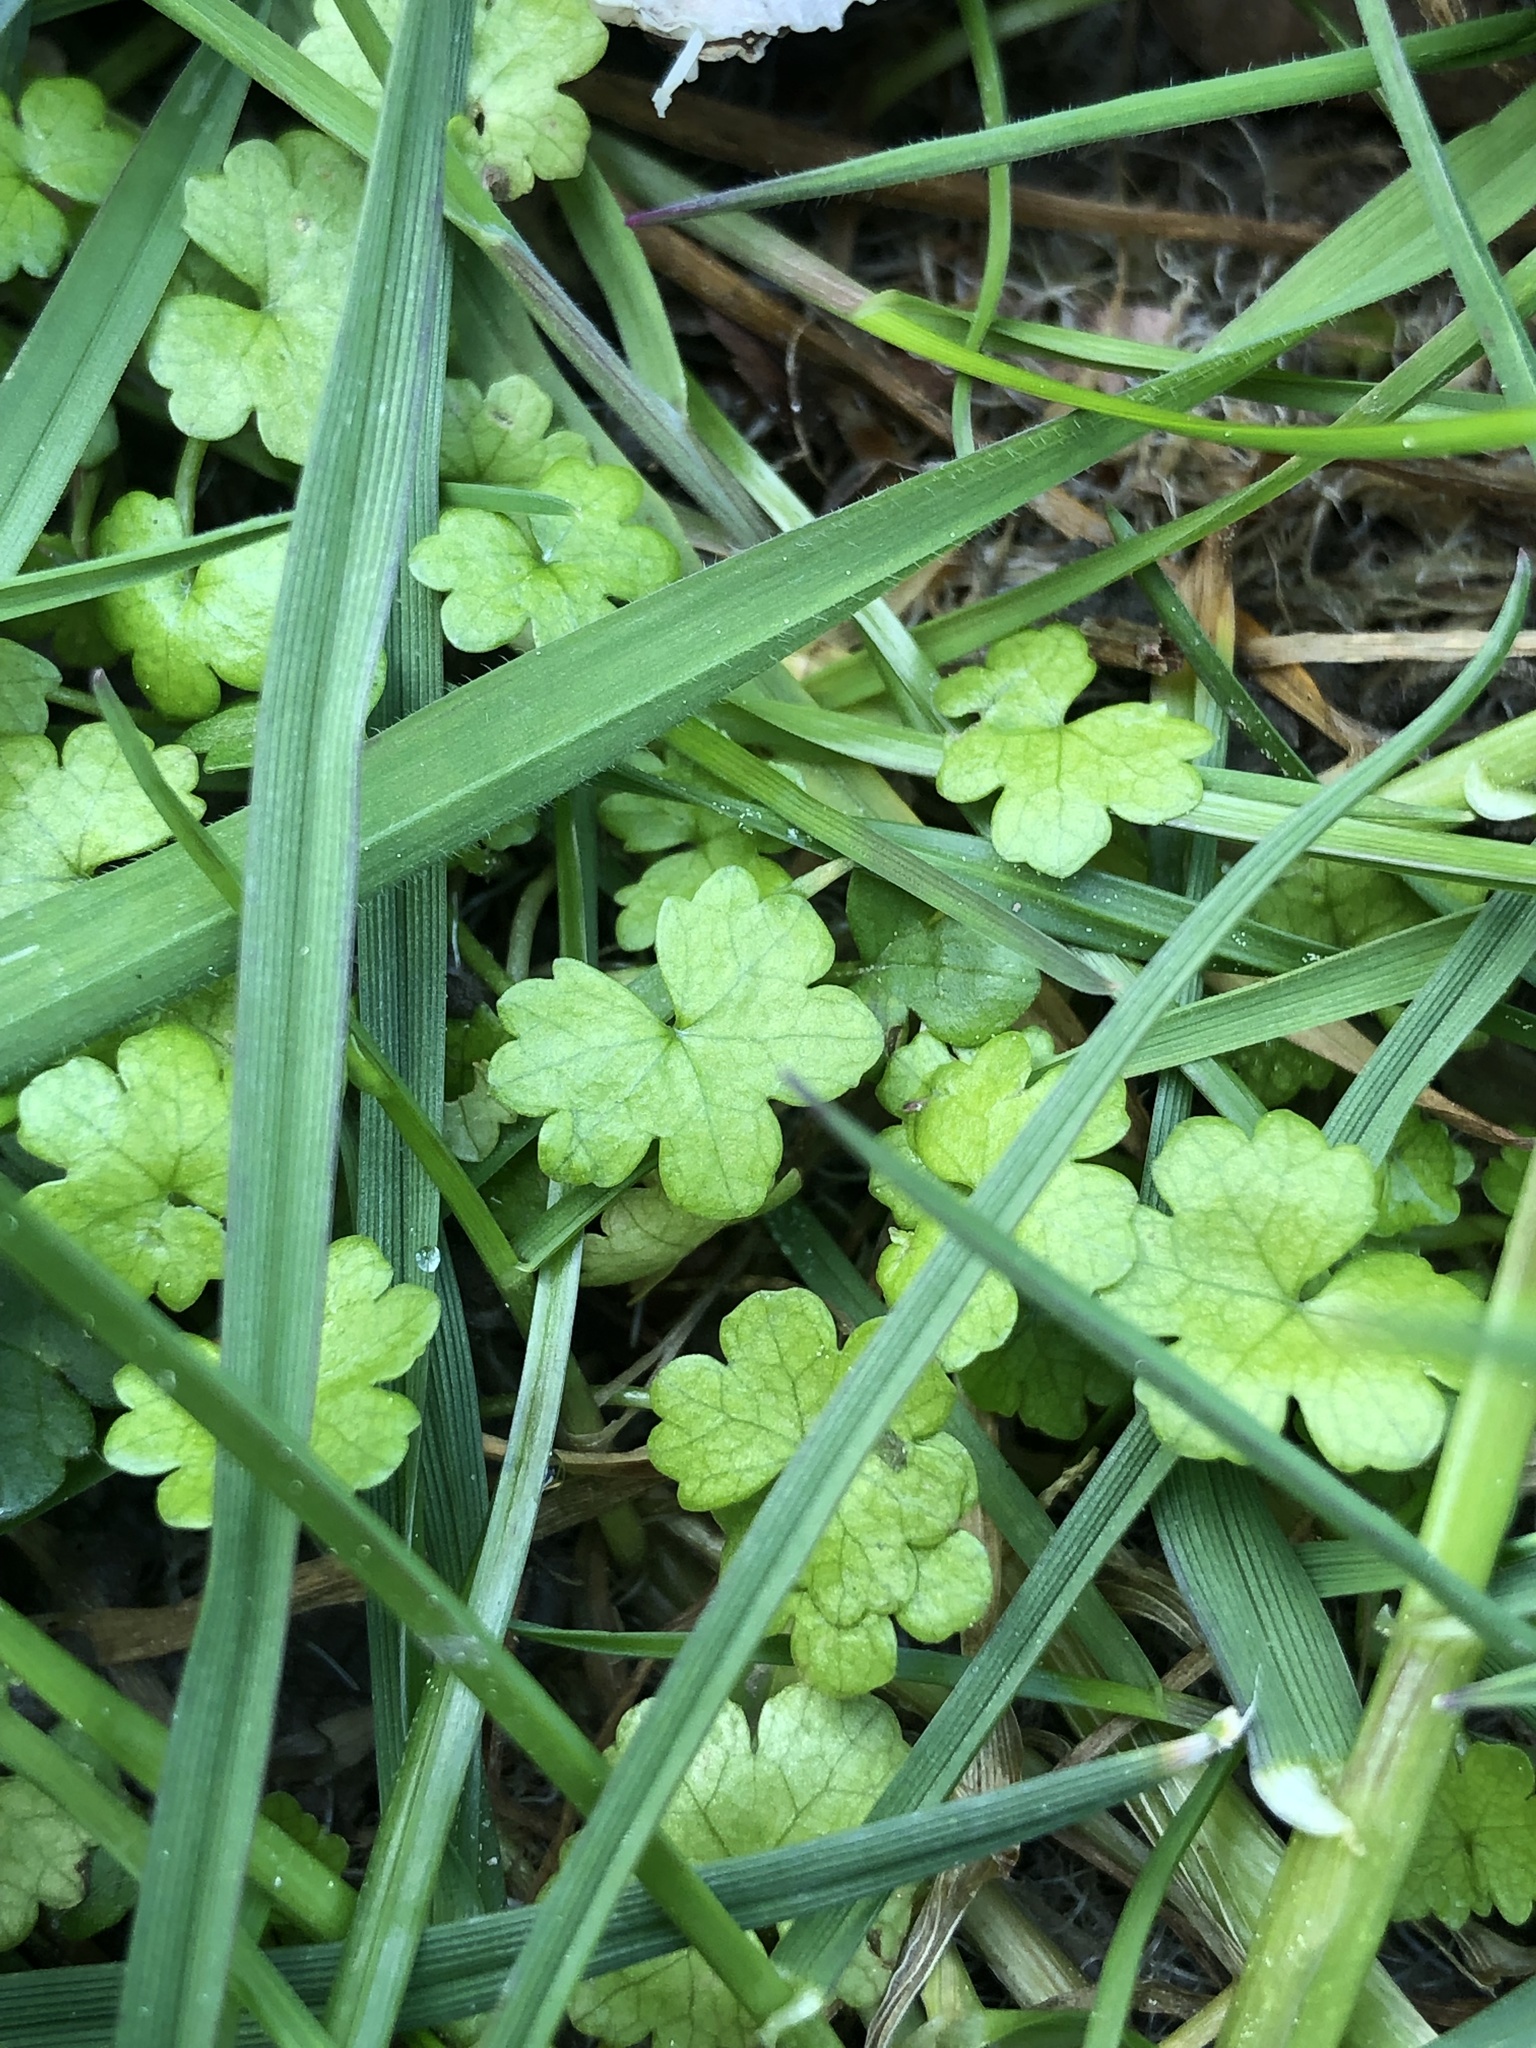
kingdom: Plantae
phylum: Tracheophyta
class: Magnoliopsida
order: Apiales
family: Araliaceae
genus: Hydrocotyle
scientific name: Hydrocotyle heteromeria
